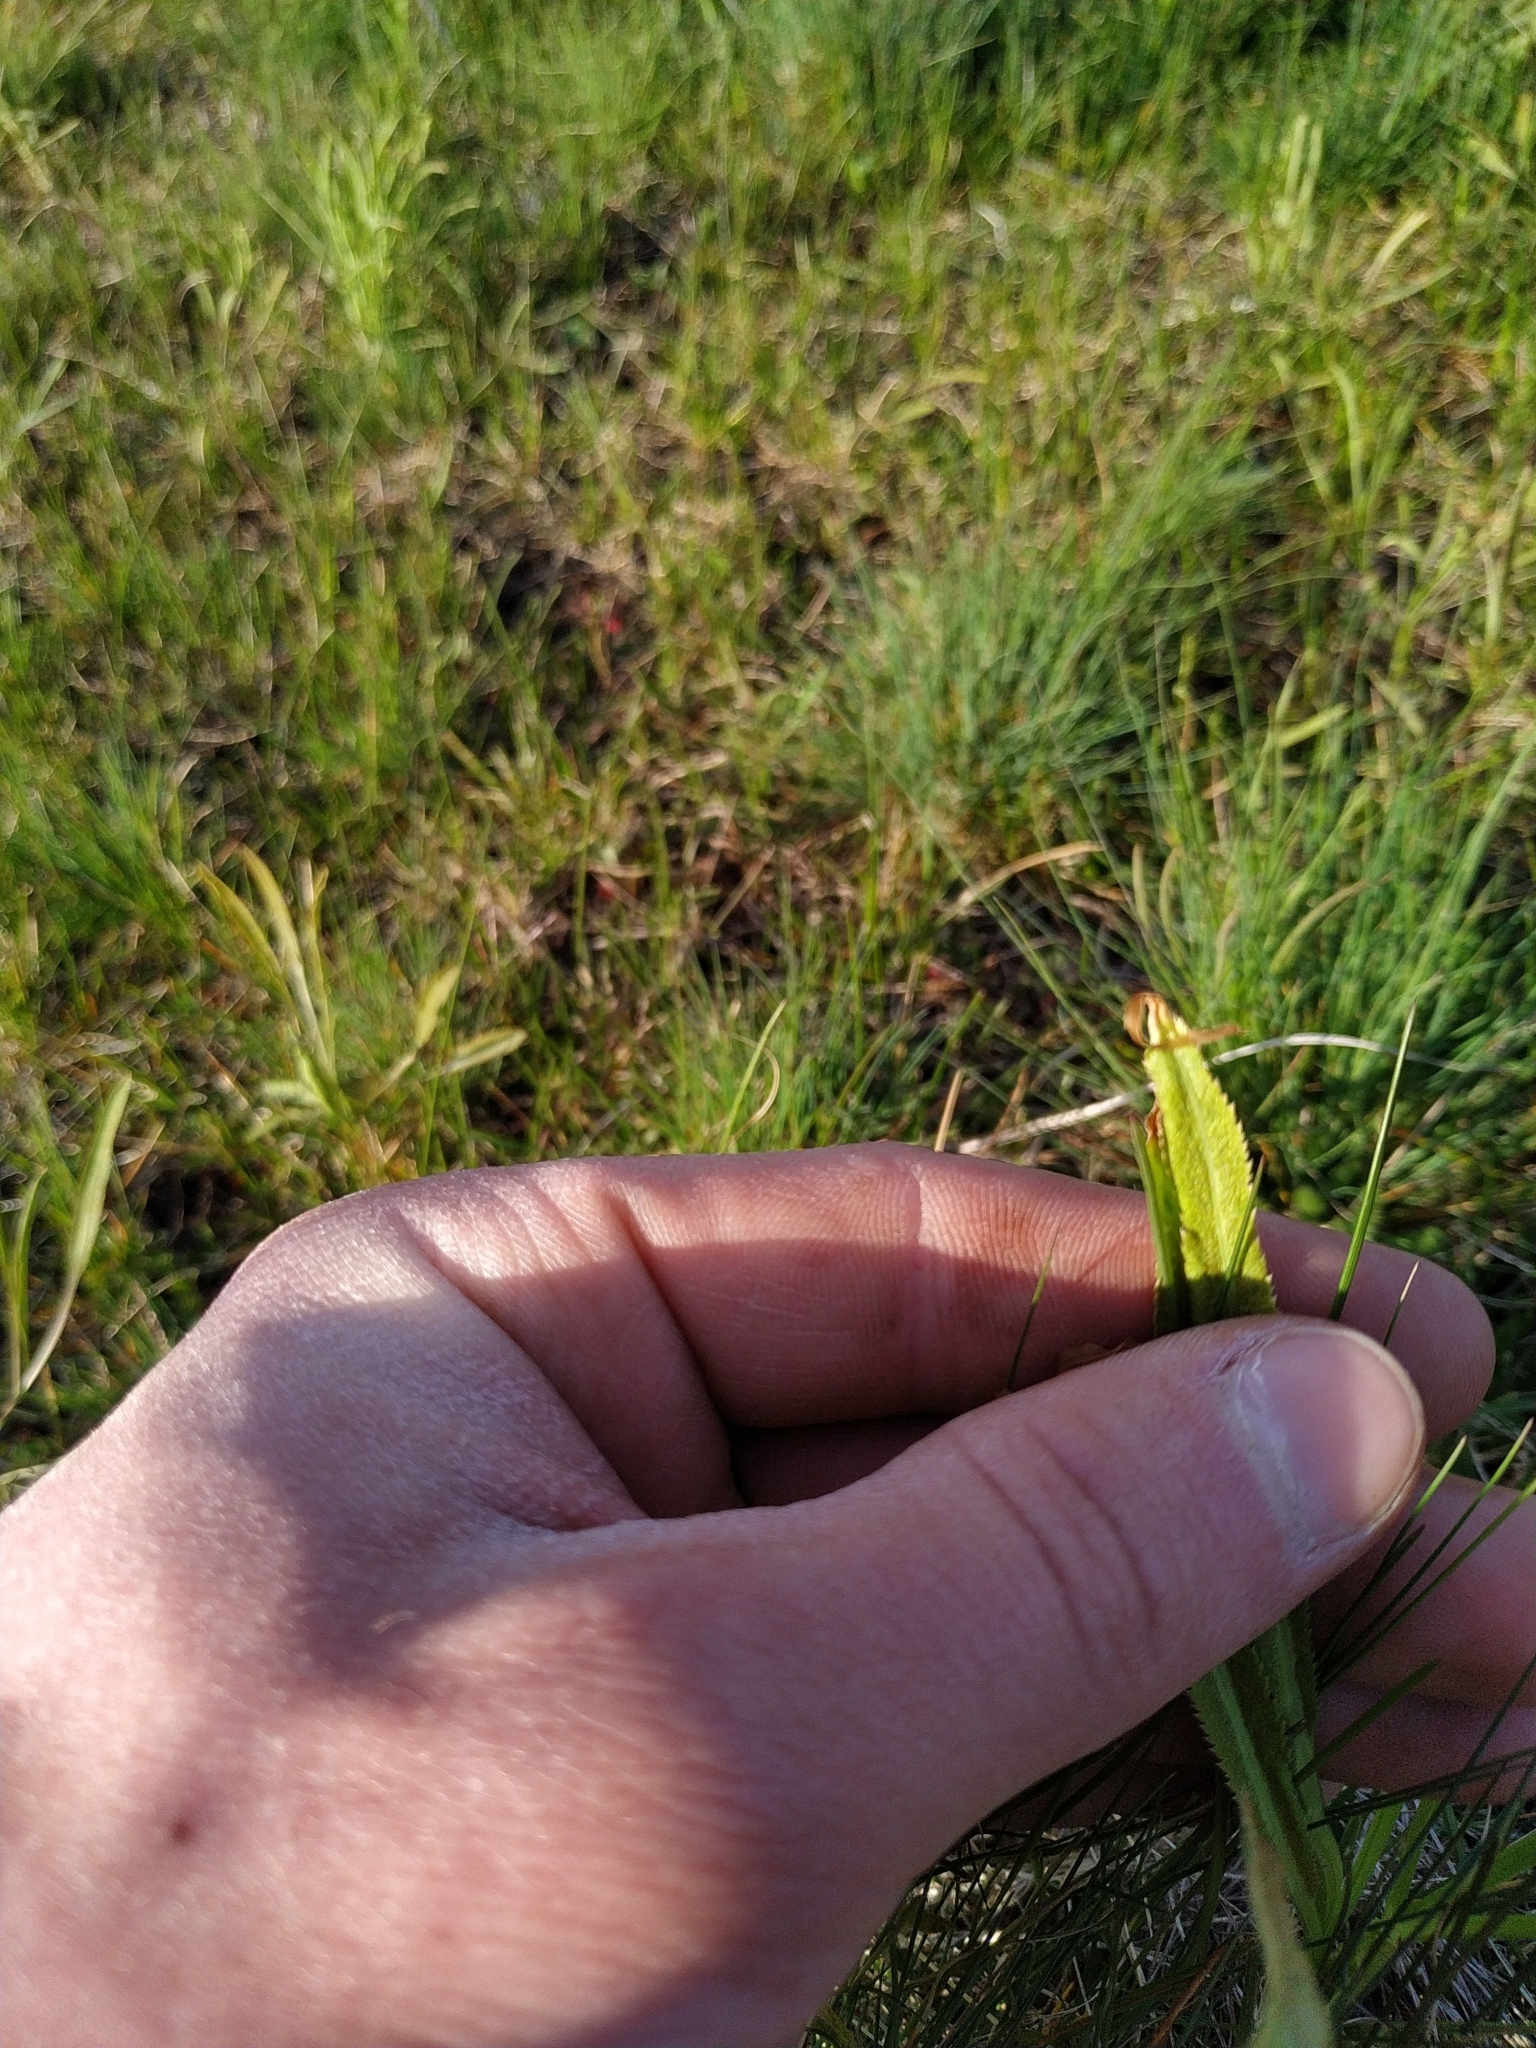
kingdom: Plantae
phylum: Tracheophyta
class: Magnoliopsida
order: Apiales
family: Apiaceae
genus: Falcaria
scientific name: Falcaria vulgaris
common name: Longleaf
